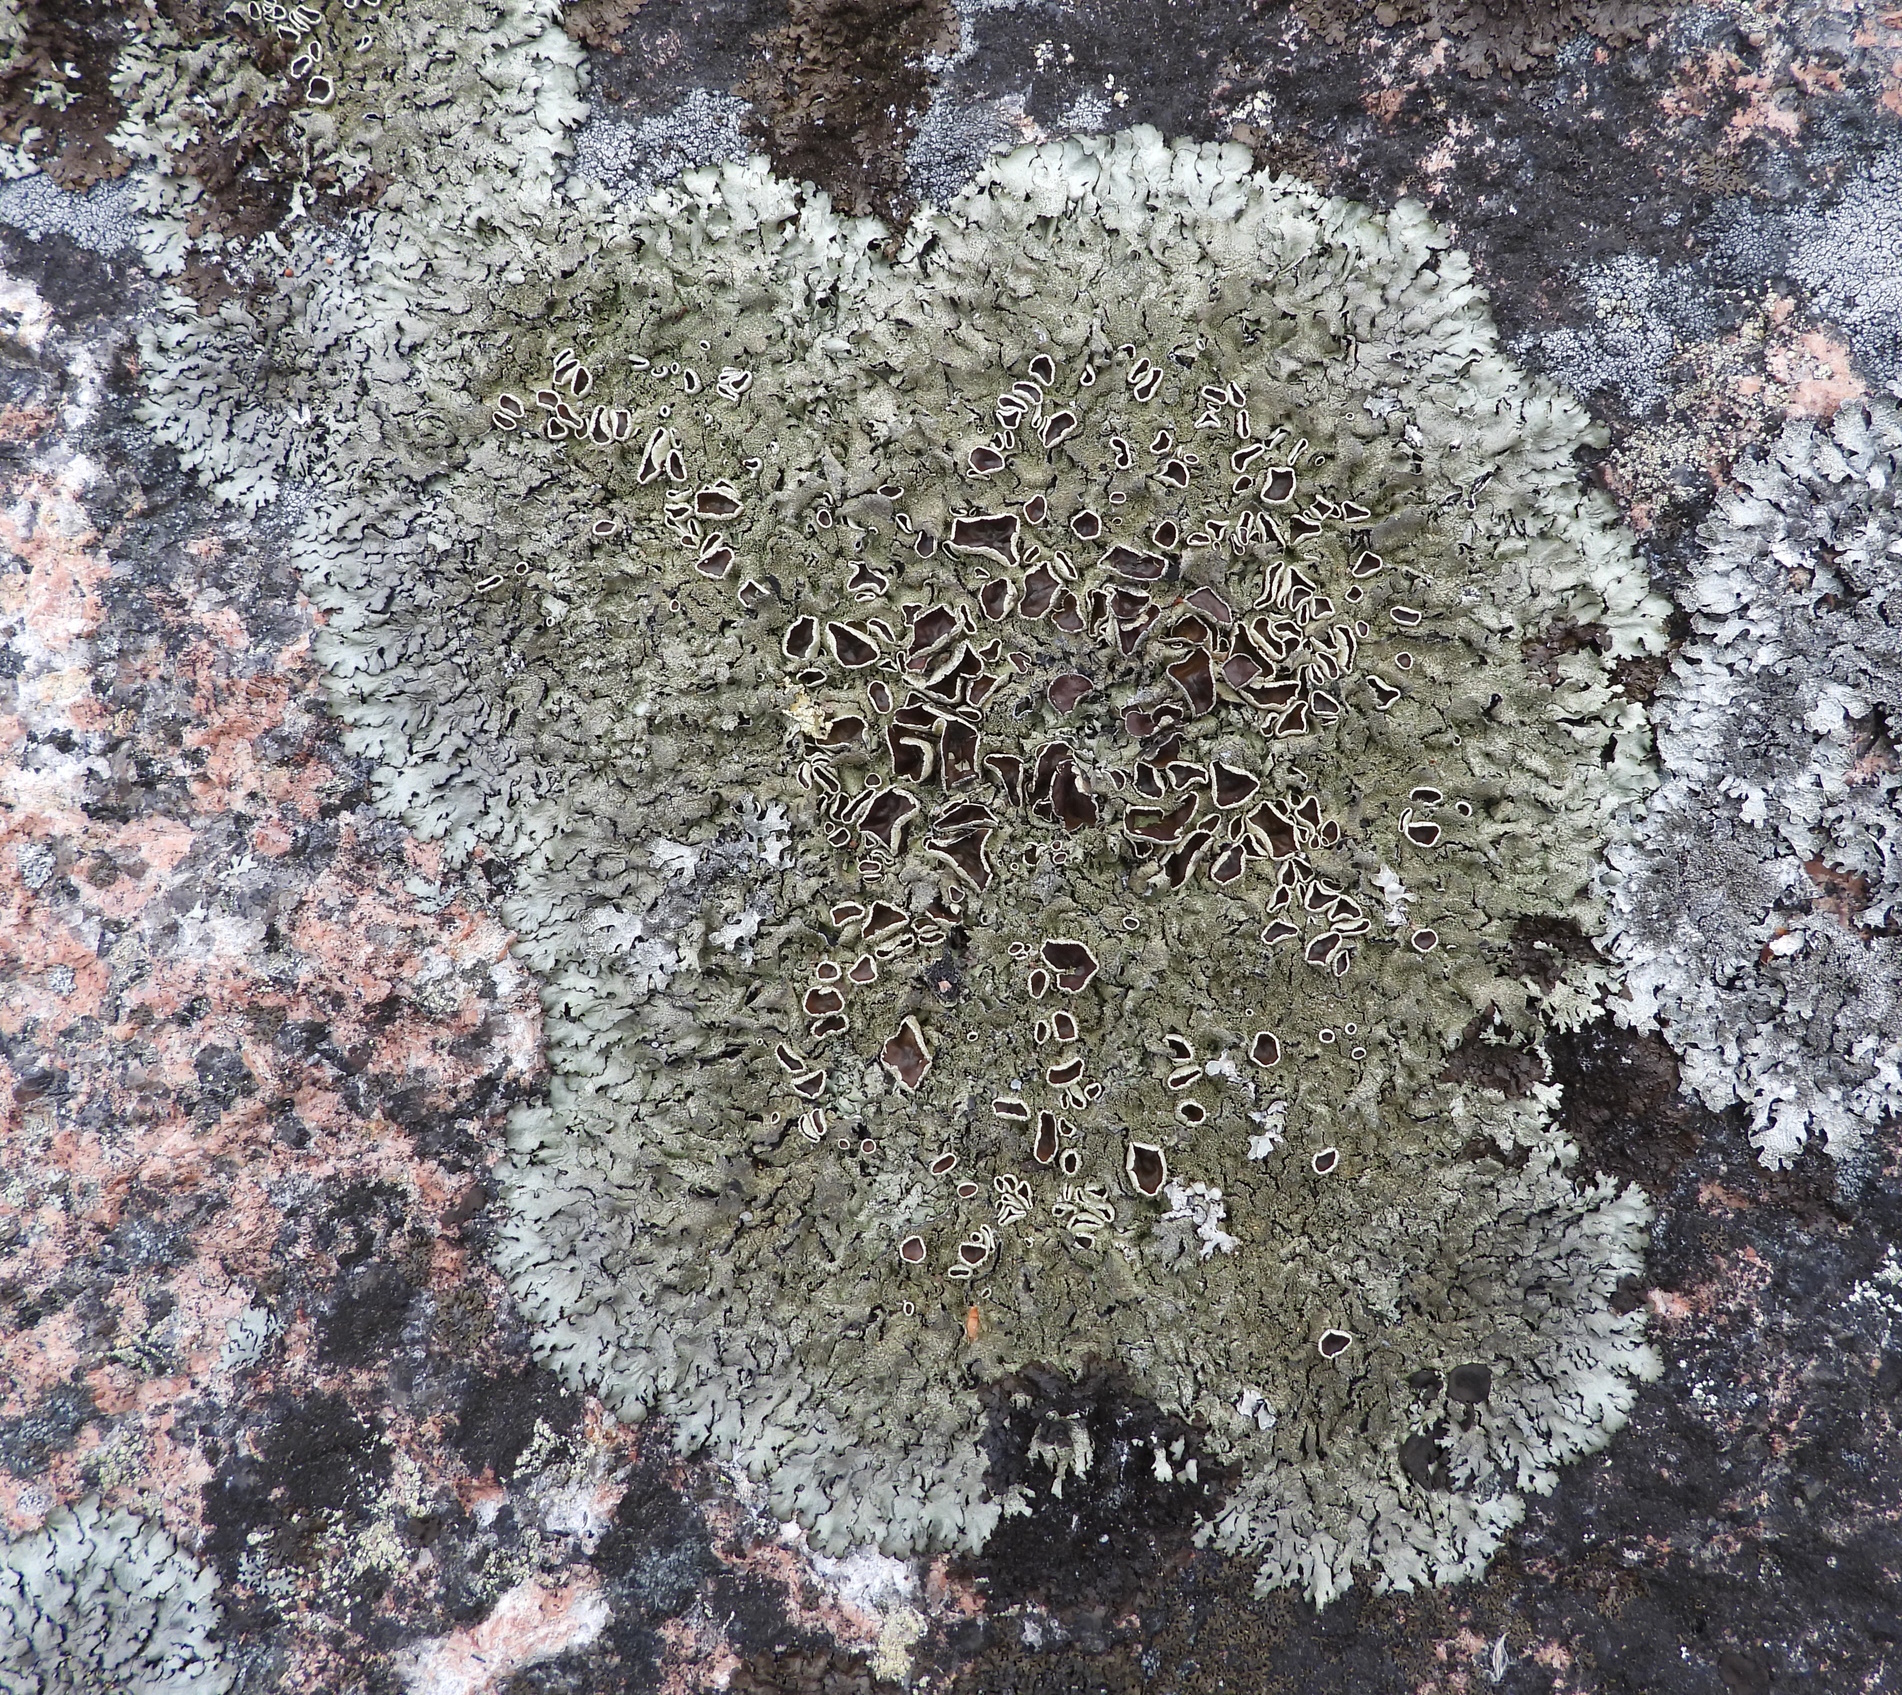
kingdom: Fungi
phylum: Ascomycota
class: Lecanoromycetes
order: Lecanorales
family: Parmeliaceae
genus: Xanthoparmelia
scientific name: Xanthoparmelia conspersa
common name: Peppered rock shield
